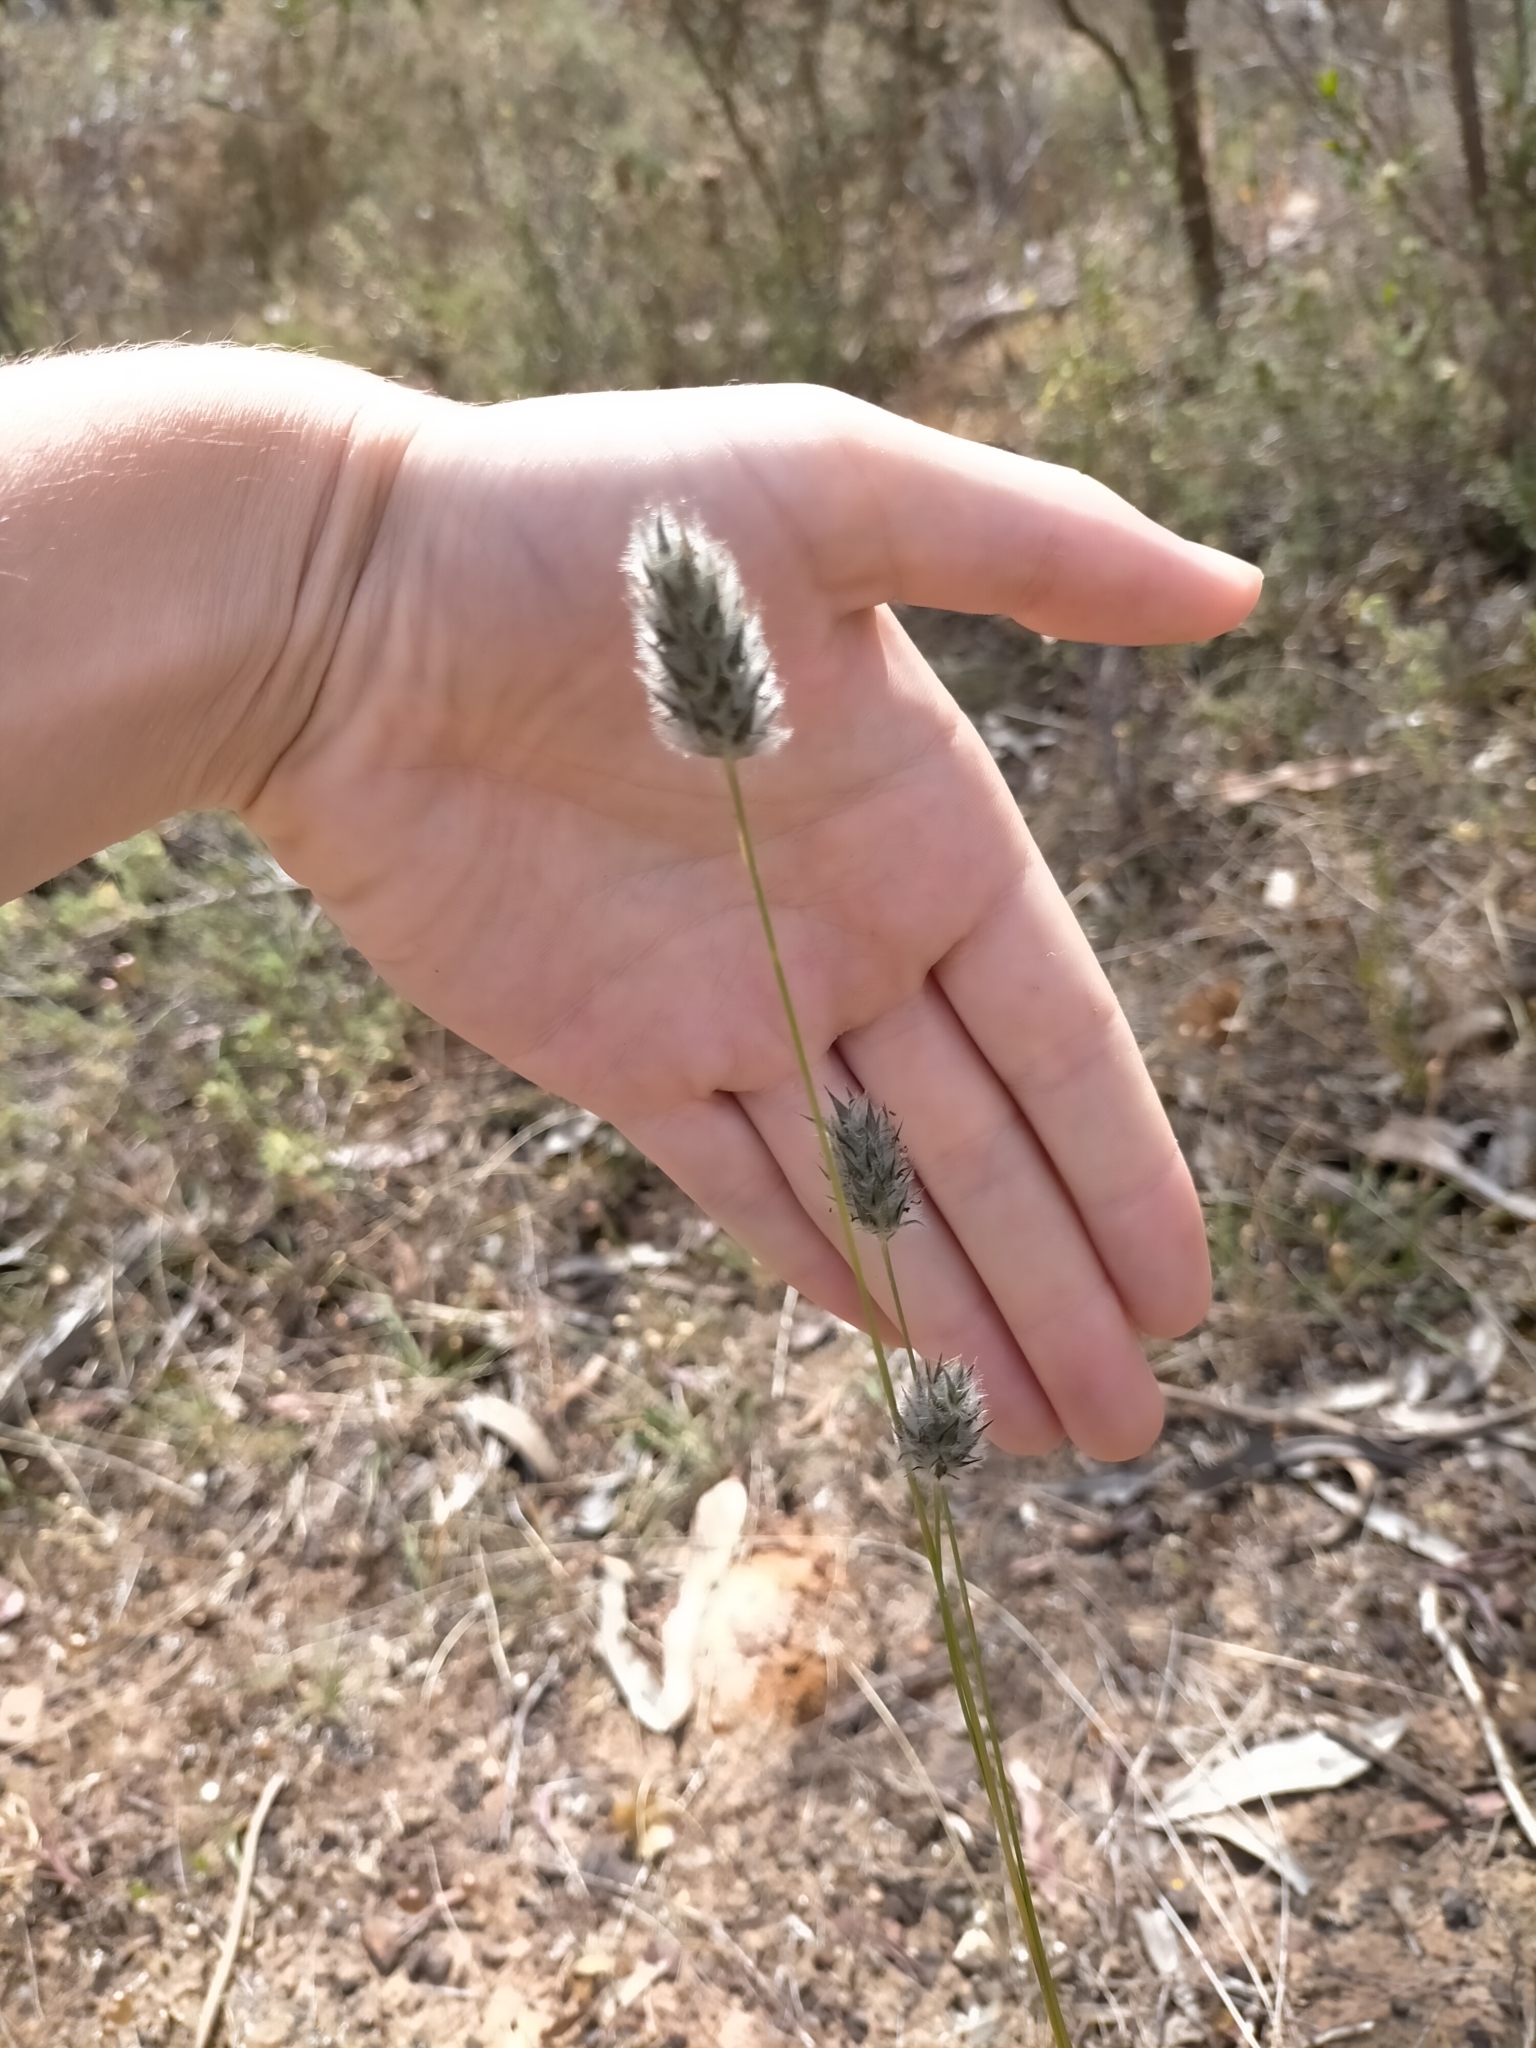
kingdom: Plantae
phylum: Tracheophyta
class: Liliopsida
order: Poales
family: Poaceae
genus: Neurachne
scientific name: Neurachne alopecuroidea
